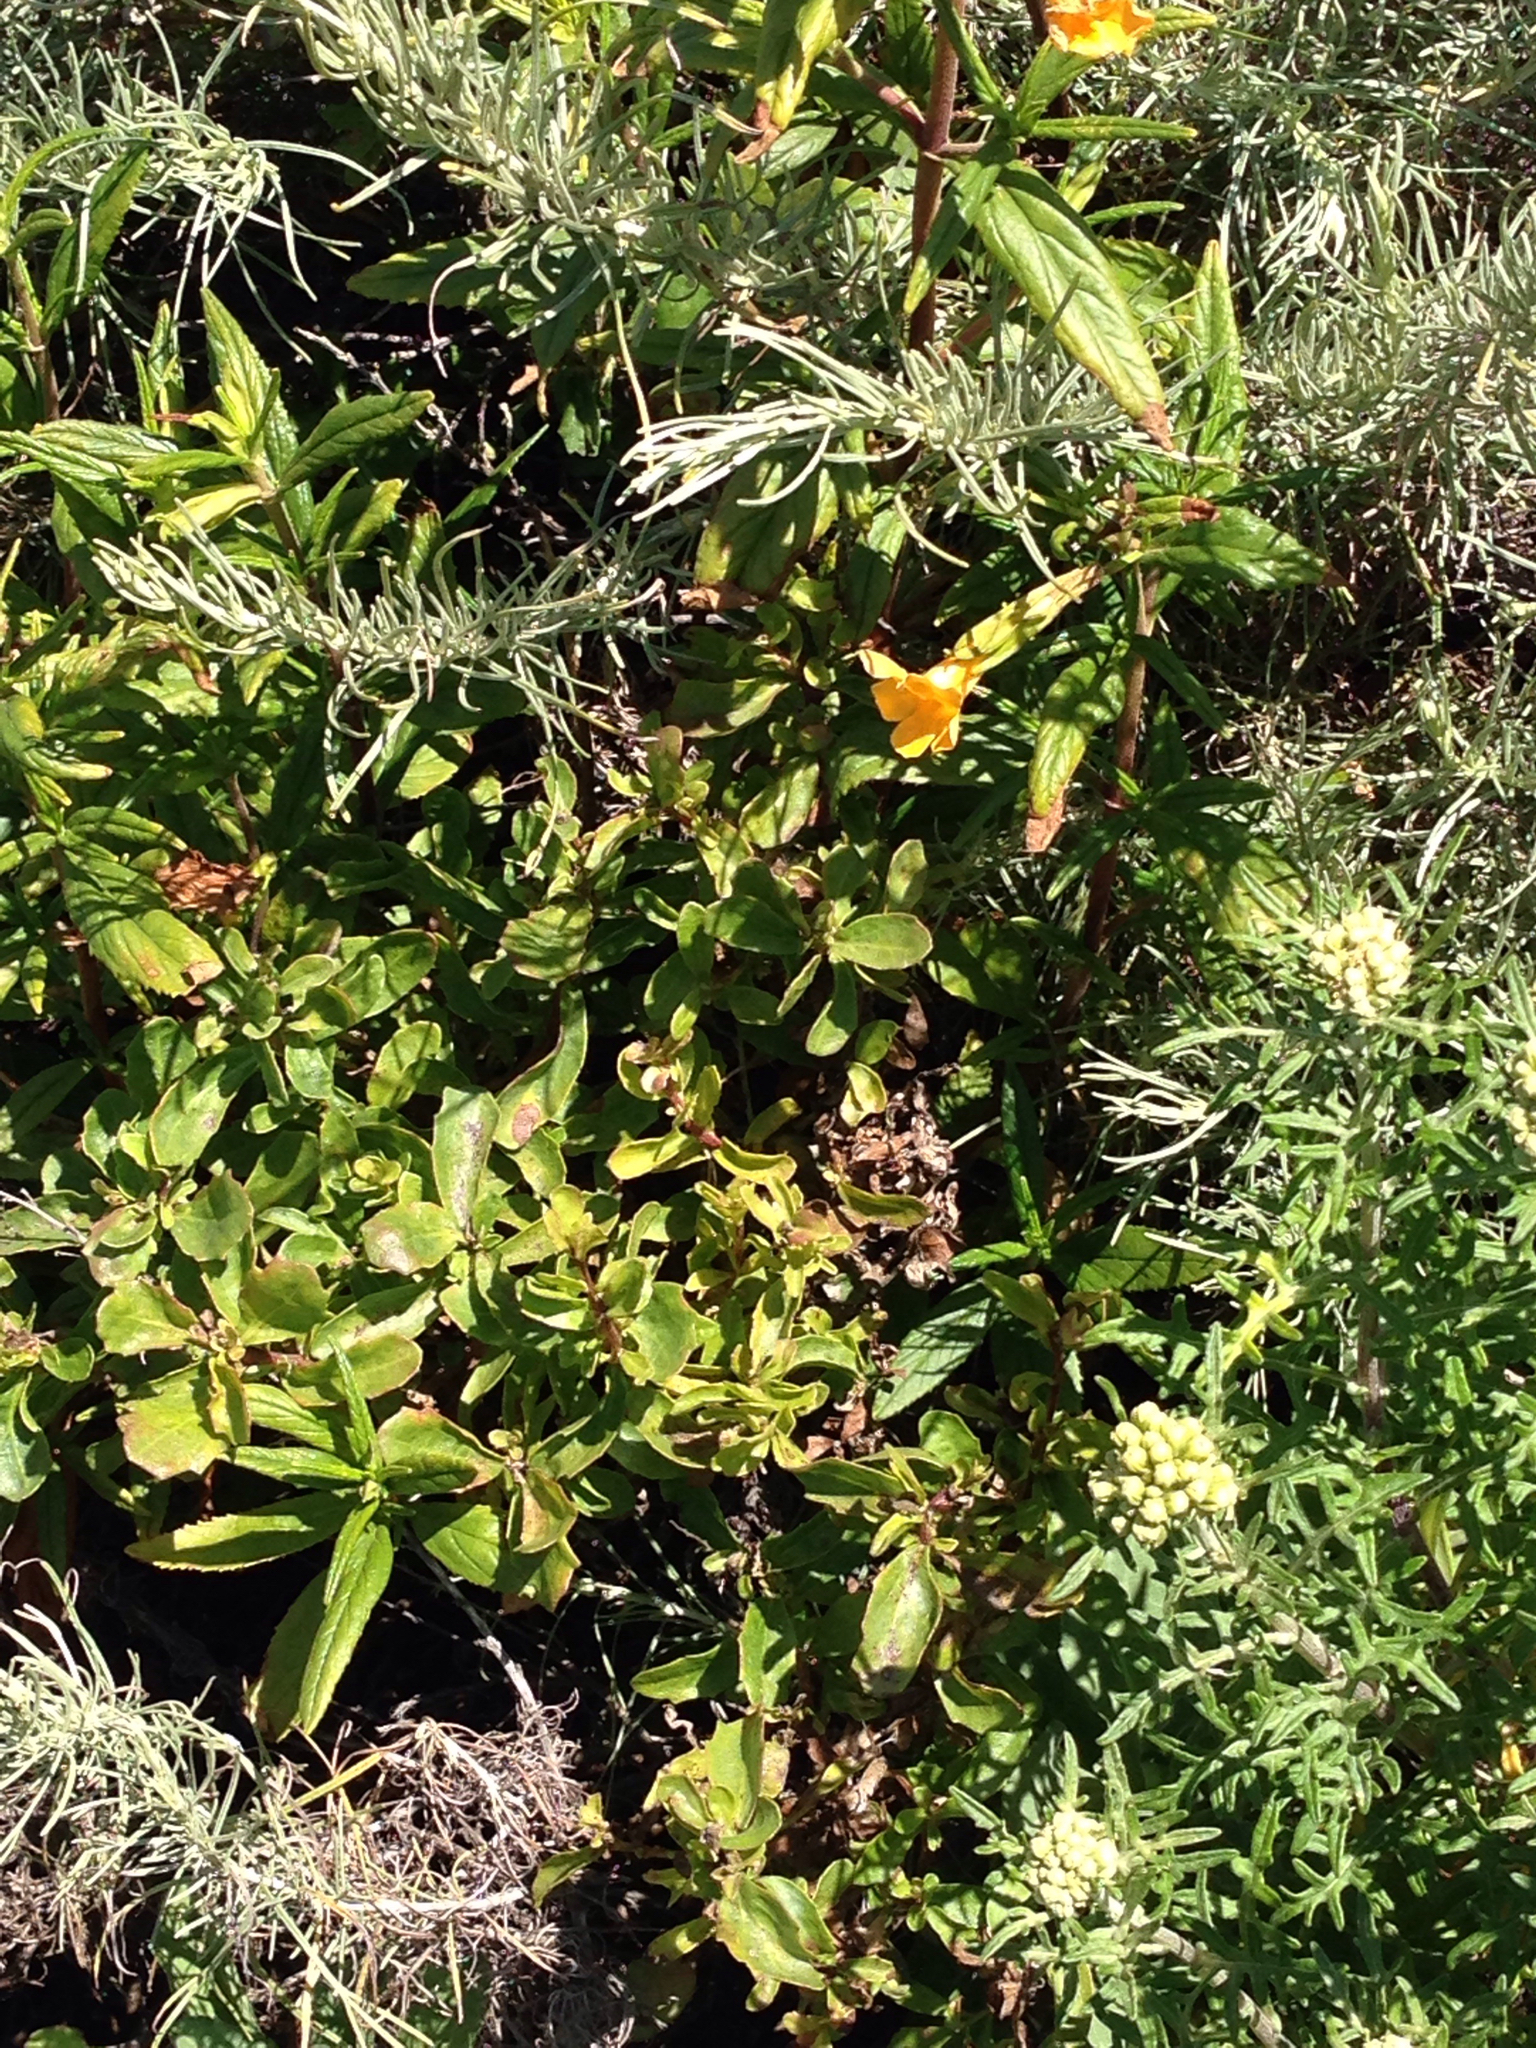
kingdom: Plantae
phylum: Tracheophyta
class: Magnoliopsida
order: Lamiales
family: Phrymaceae
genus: Diplacus
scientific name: Diplacus aurantiacus
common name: Bush monkey-flower
